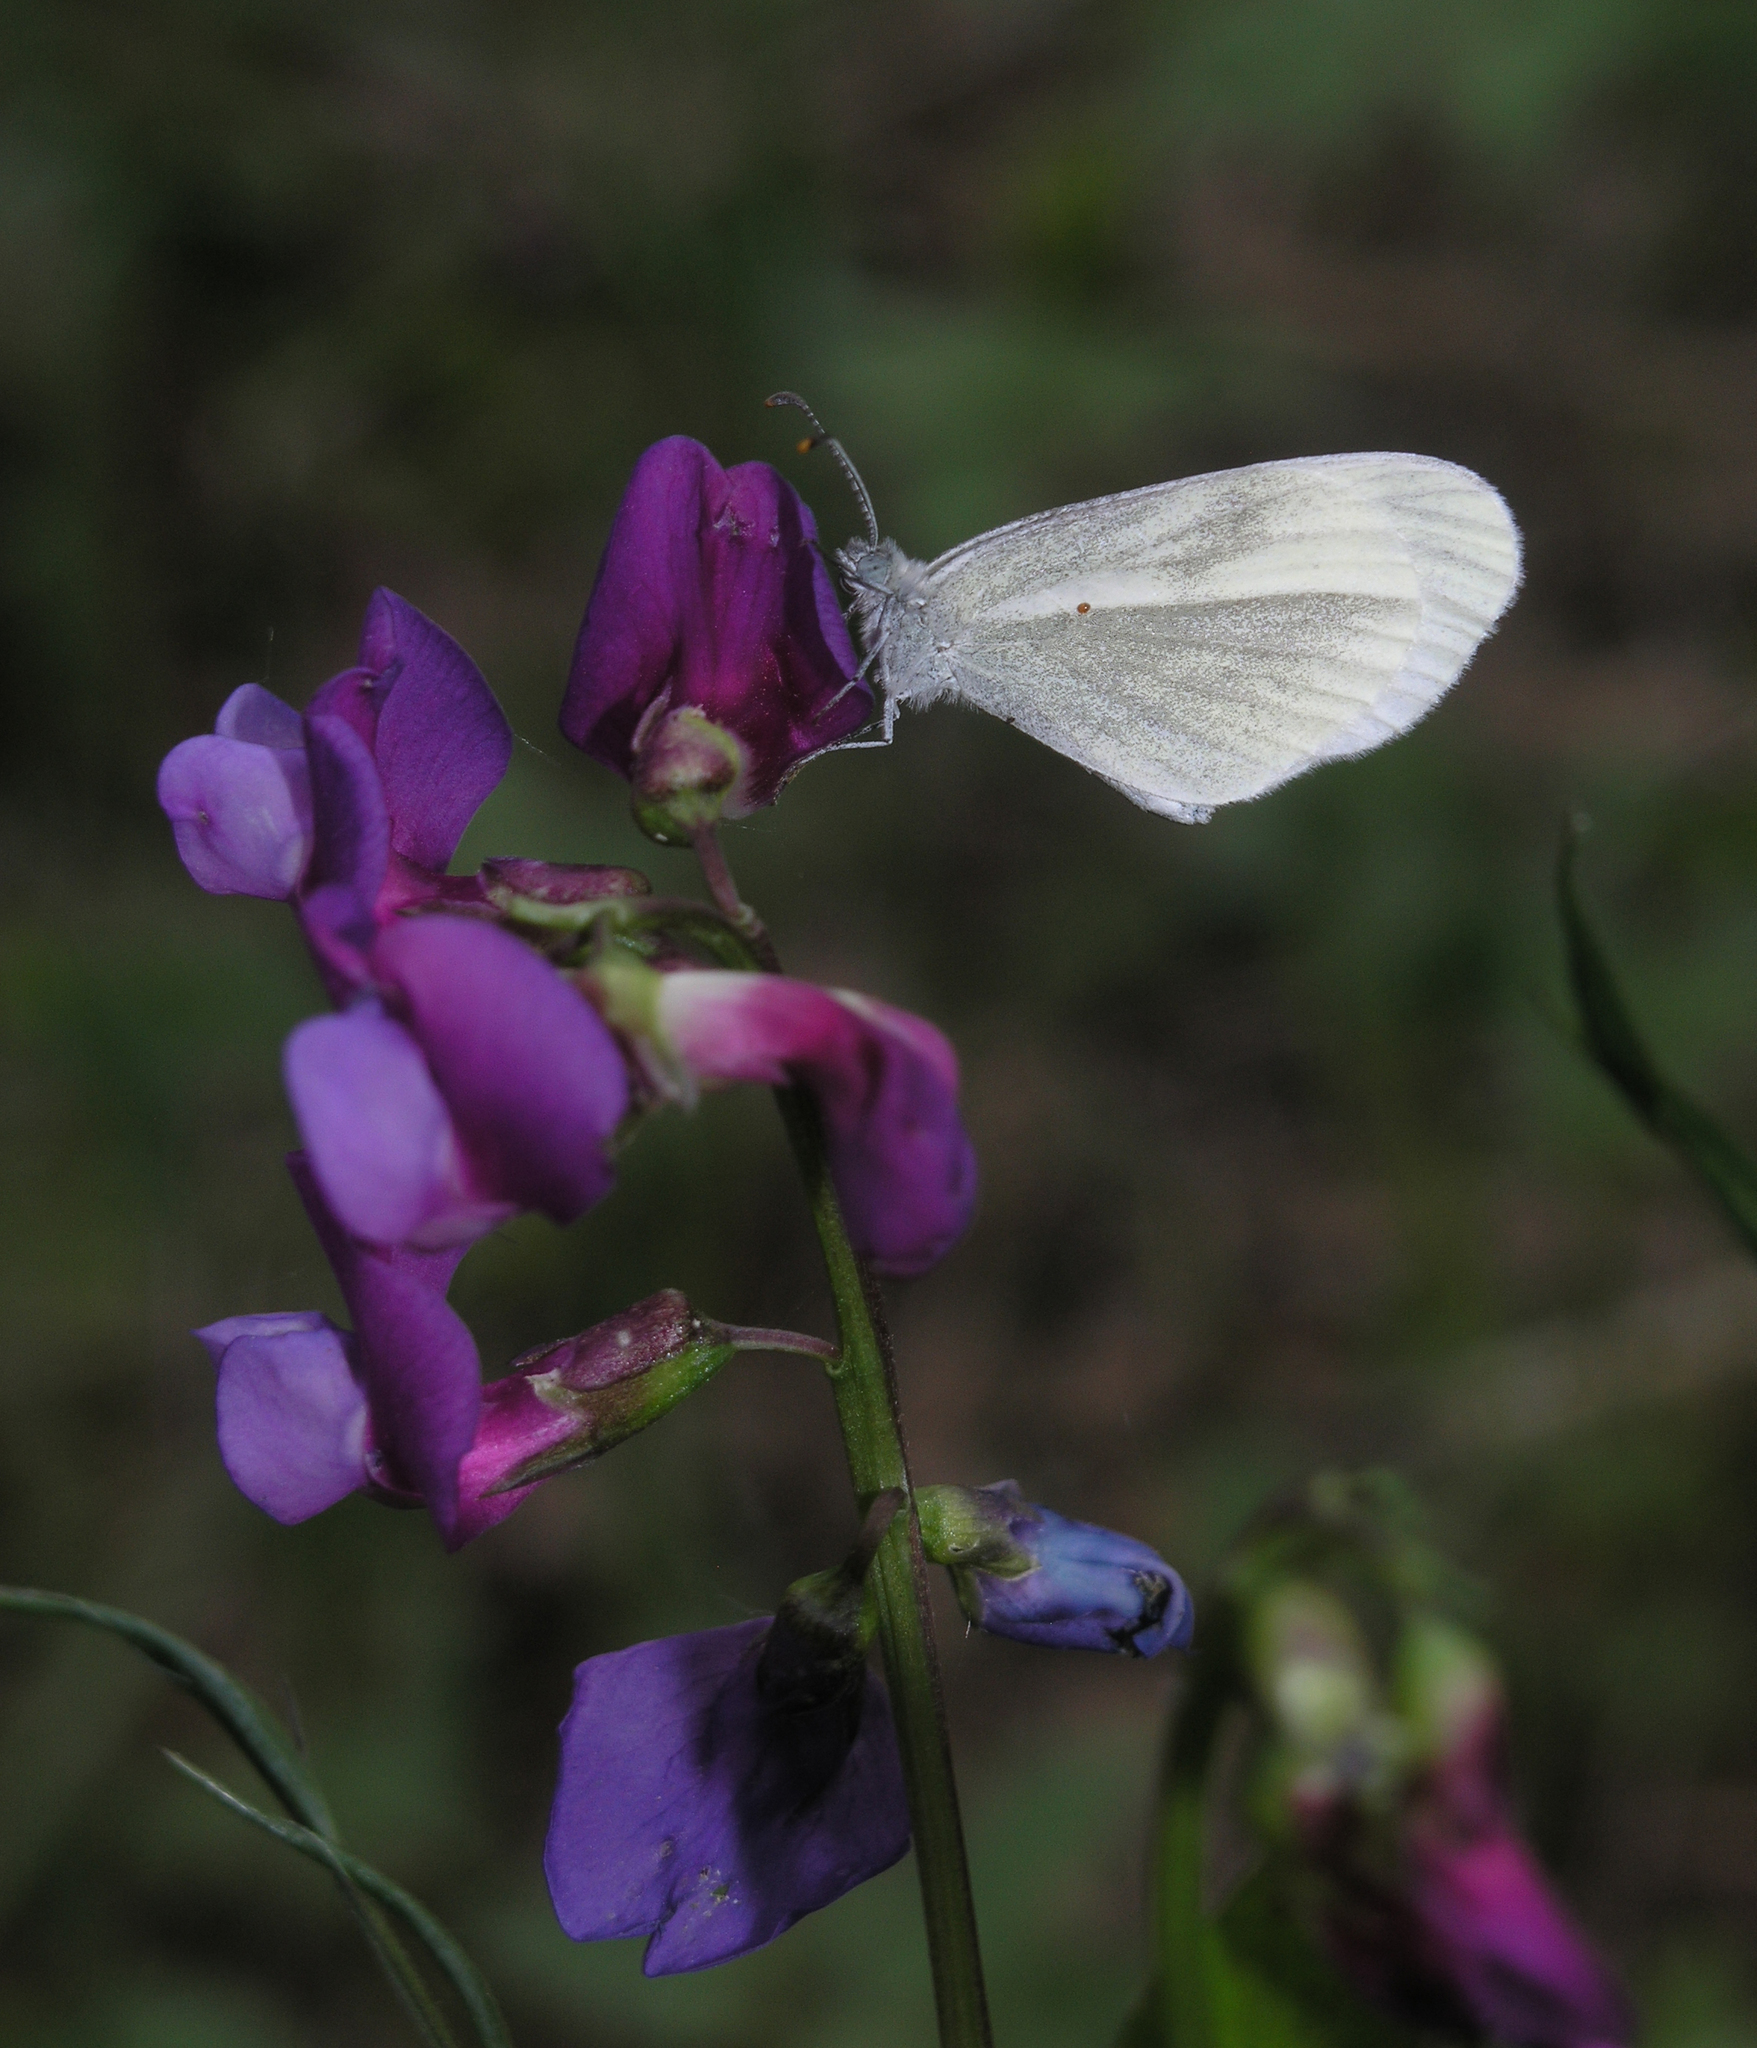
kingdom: Animalia
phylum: Arthropoda
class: Insecta
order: Lepidoptera
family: Pieridae
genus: Leptidea
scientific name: Leptidea sinapis
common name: Wood white
